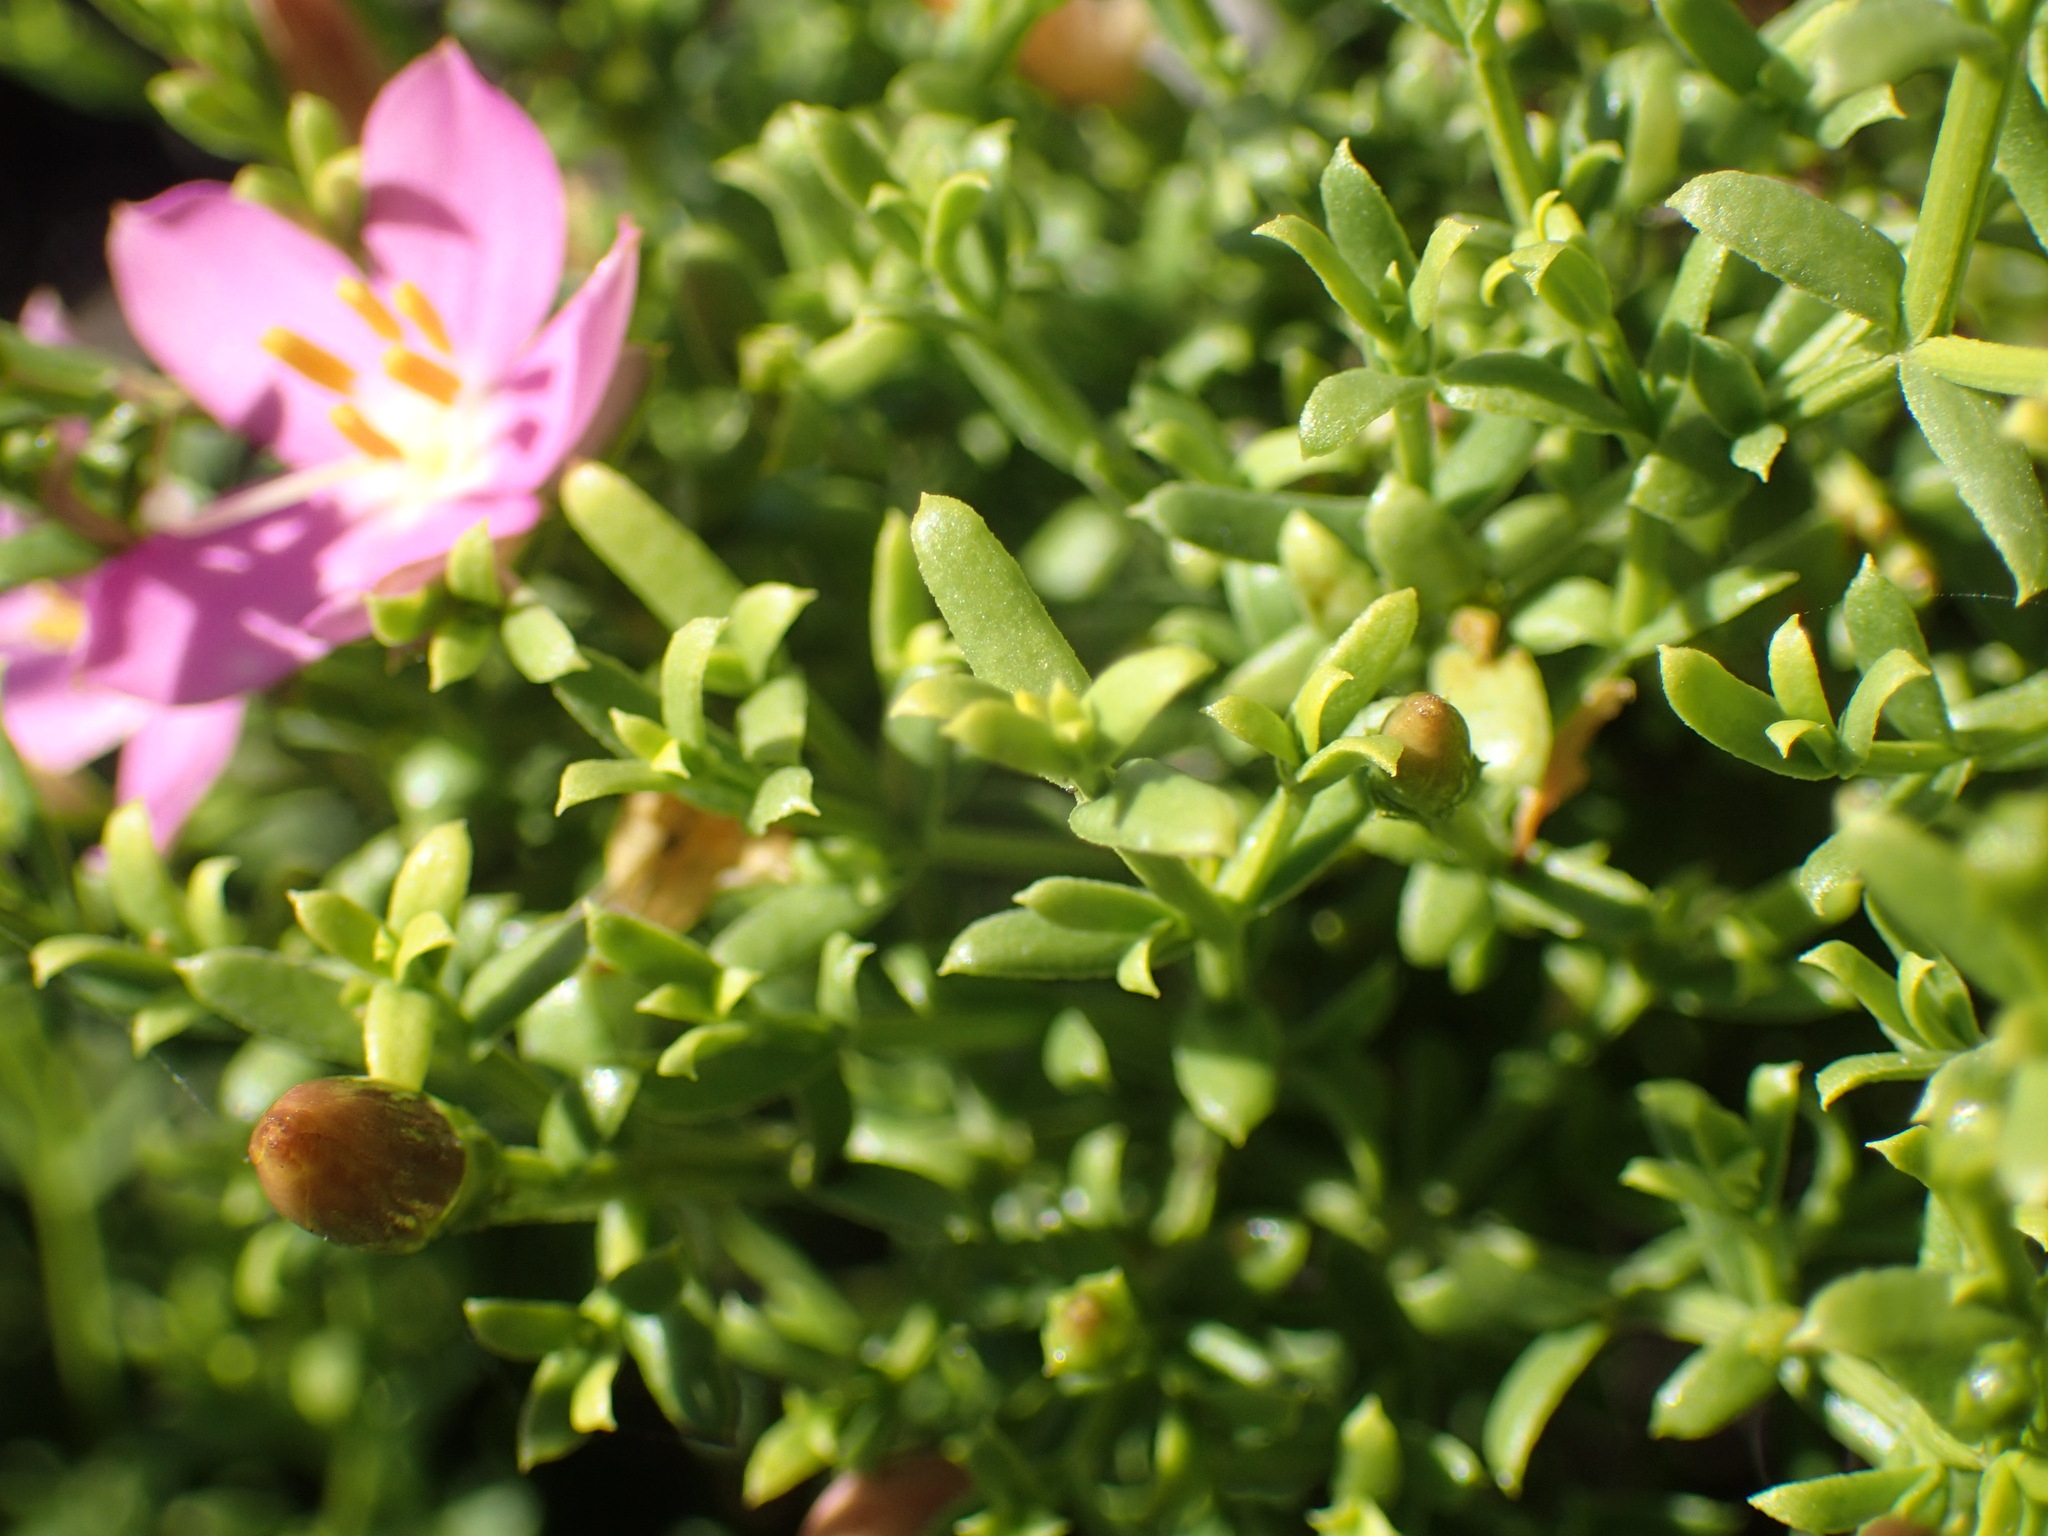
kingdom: Plantae
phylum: Tracheophyta
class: Magnoliopsida
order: Gentianales
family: Gentianaceae
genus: Chironia
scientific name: Chironia baccifera
